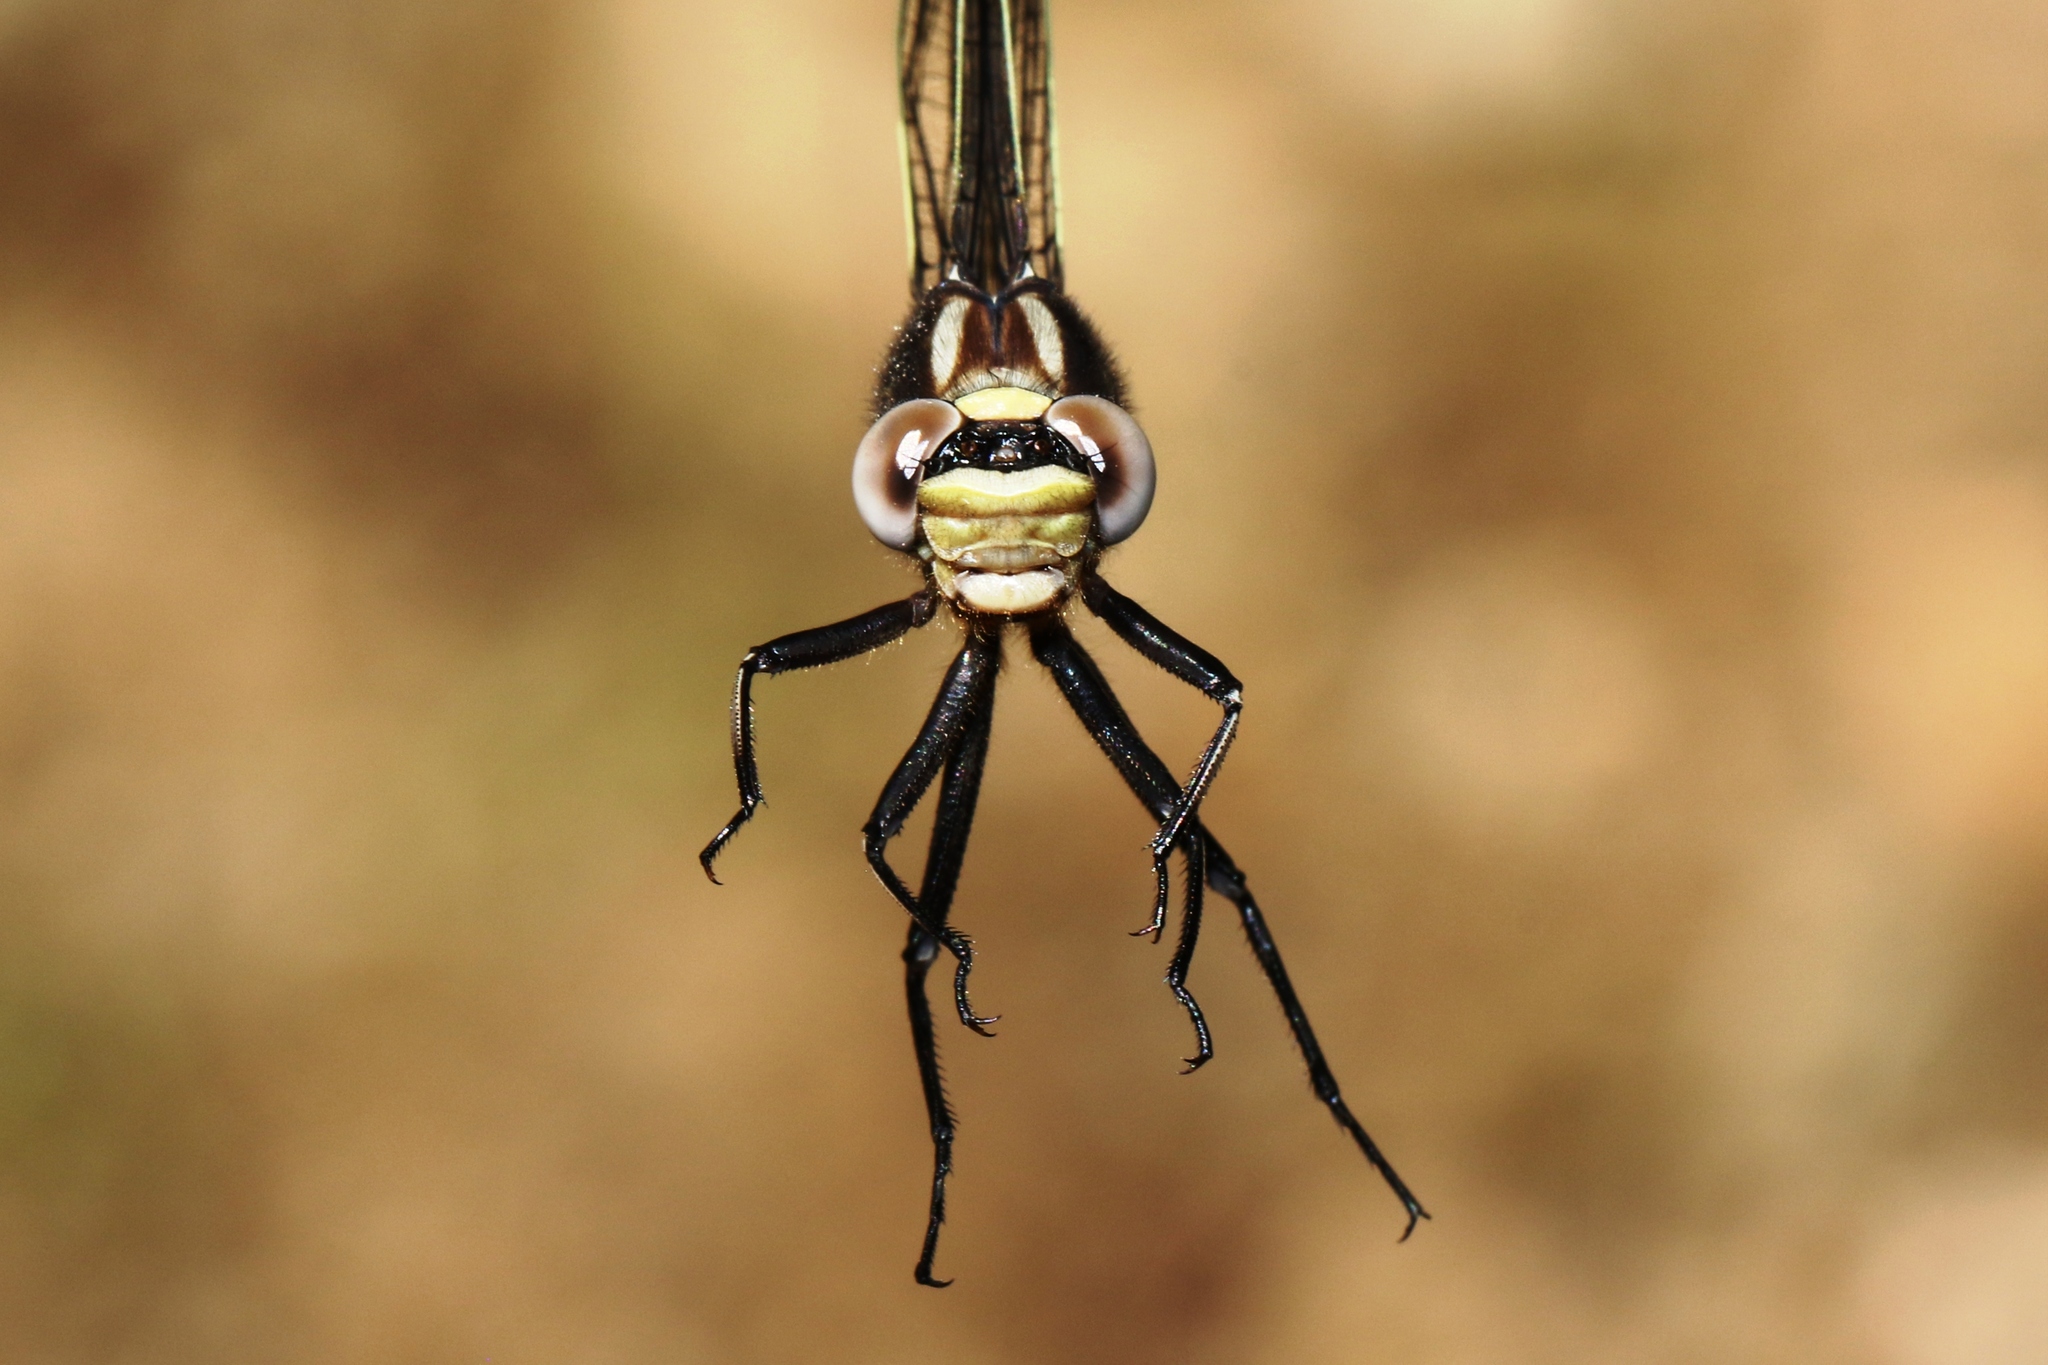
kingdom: Animalia
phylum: Arthropoda
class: Insecta
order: Odonata
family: Gomphidae
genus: Phanogomphus
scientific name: Phanogomphus spicatus
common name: Dusky clubtail
